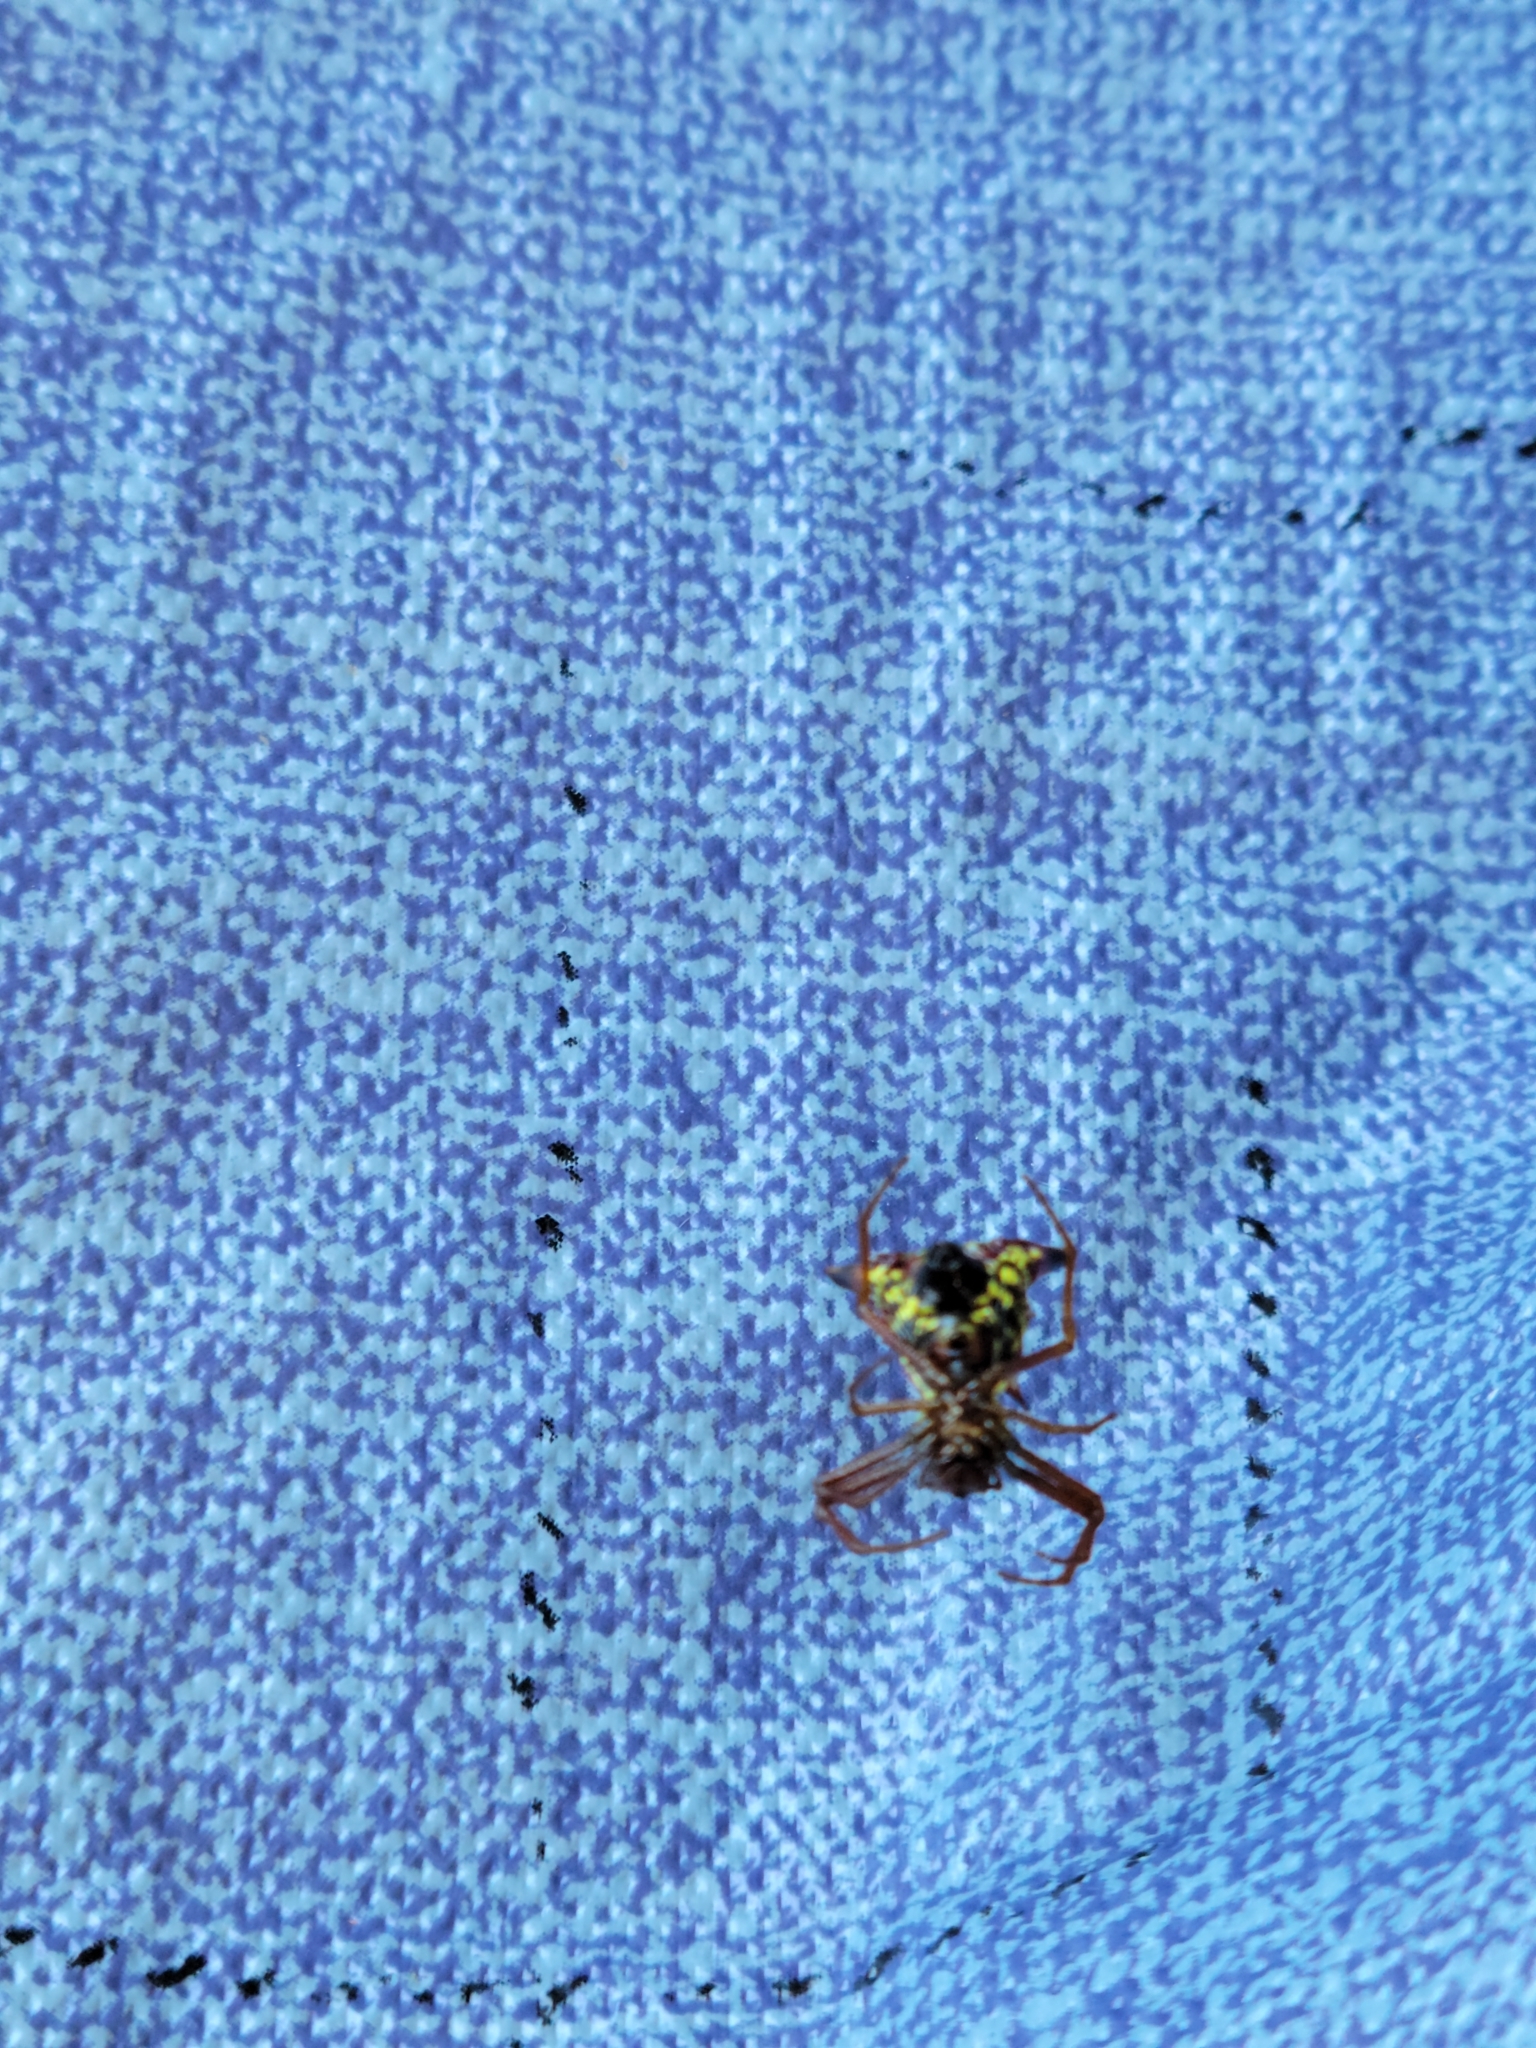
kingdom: Animalia
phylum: Arthropoda
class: Arachnida
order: Araneae
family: Araneidae
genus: Micrathena
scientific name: Micrathena sagittata
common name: Orb weavers
